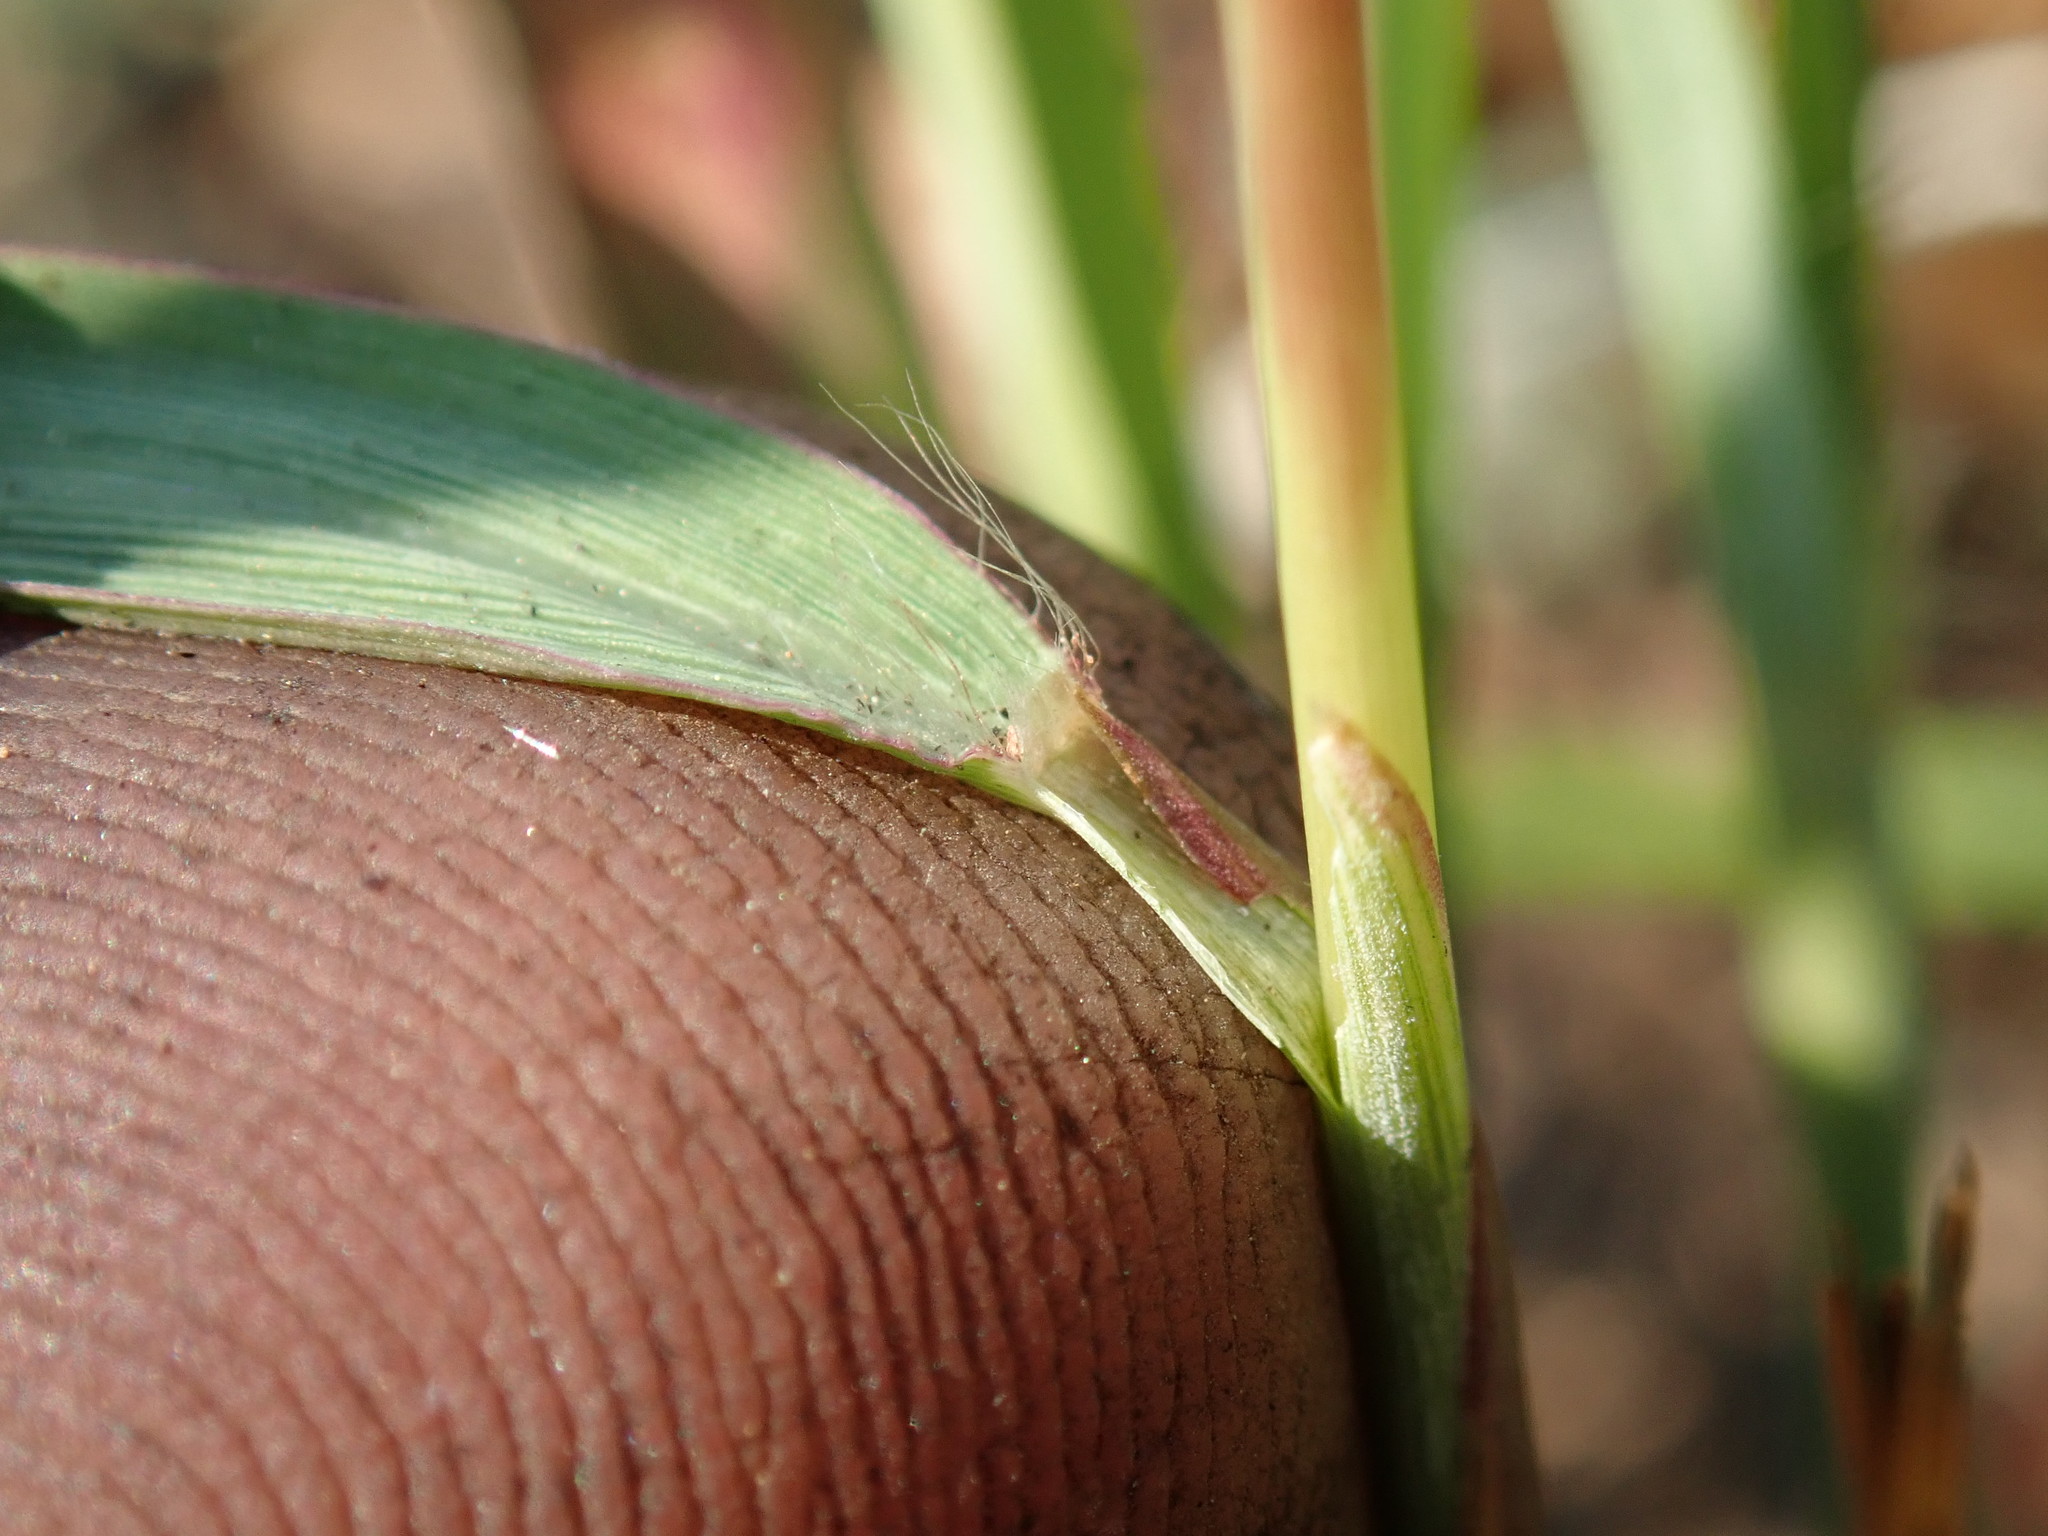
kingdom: Plantae
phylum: Tracheophyta
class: Liliopsida
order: Poales
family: Poaceae
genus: Imperata
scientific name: Imperata cylindrica
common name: Cogongrass
